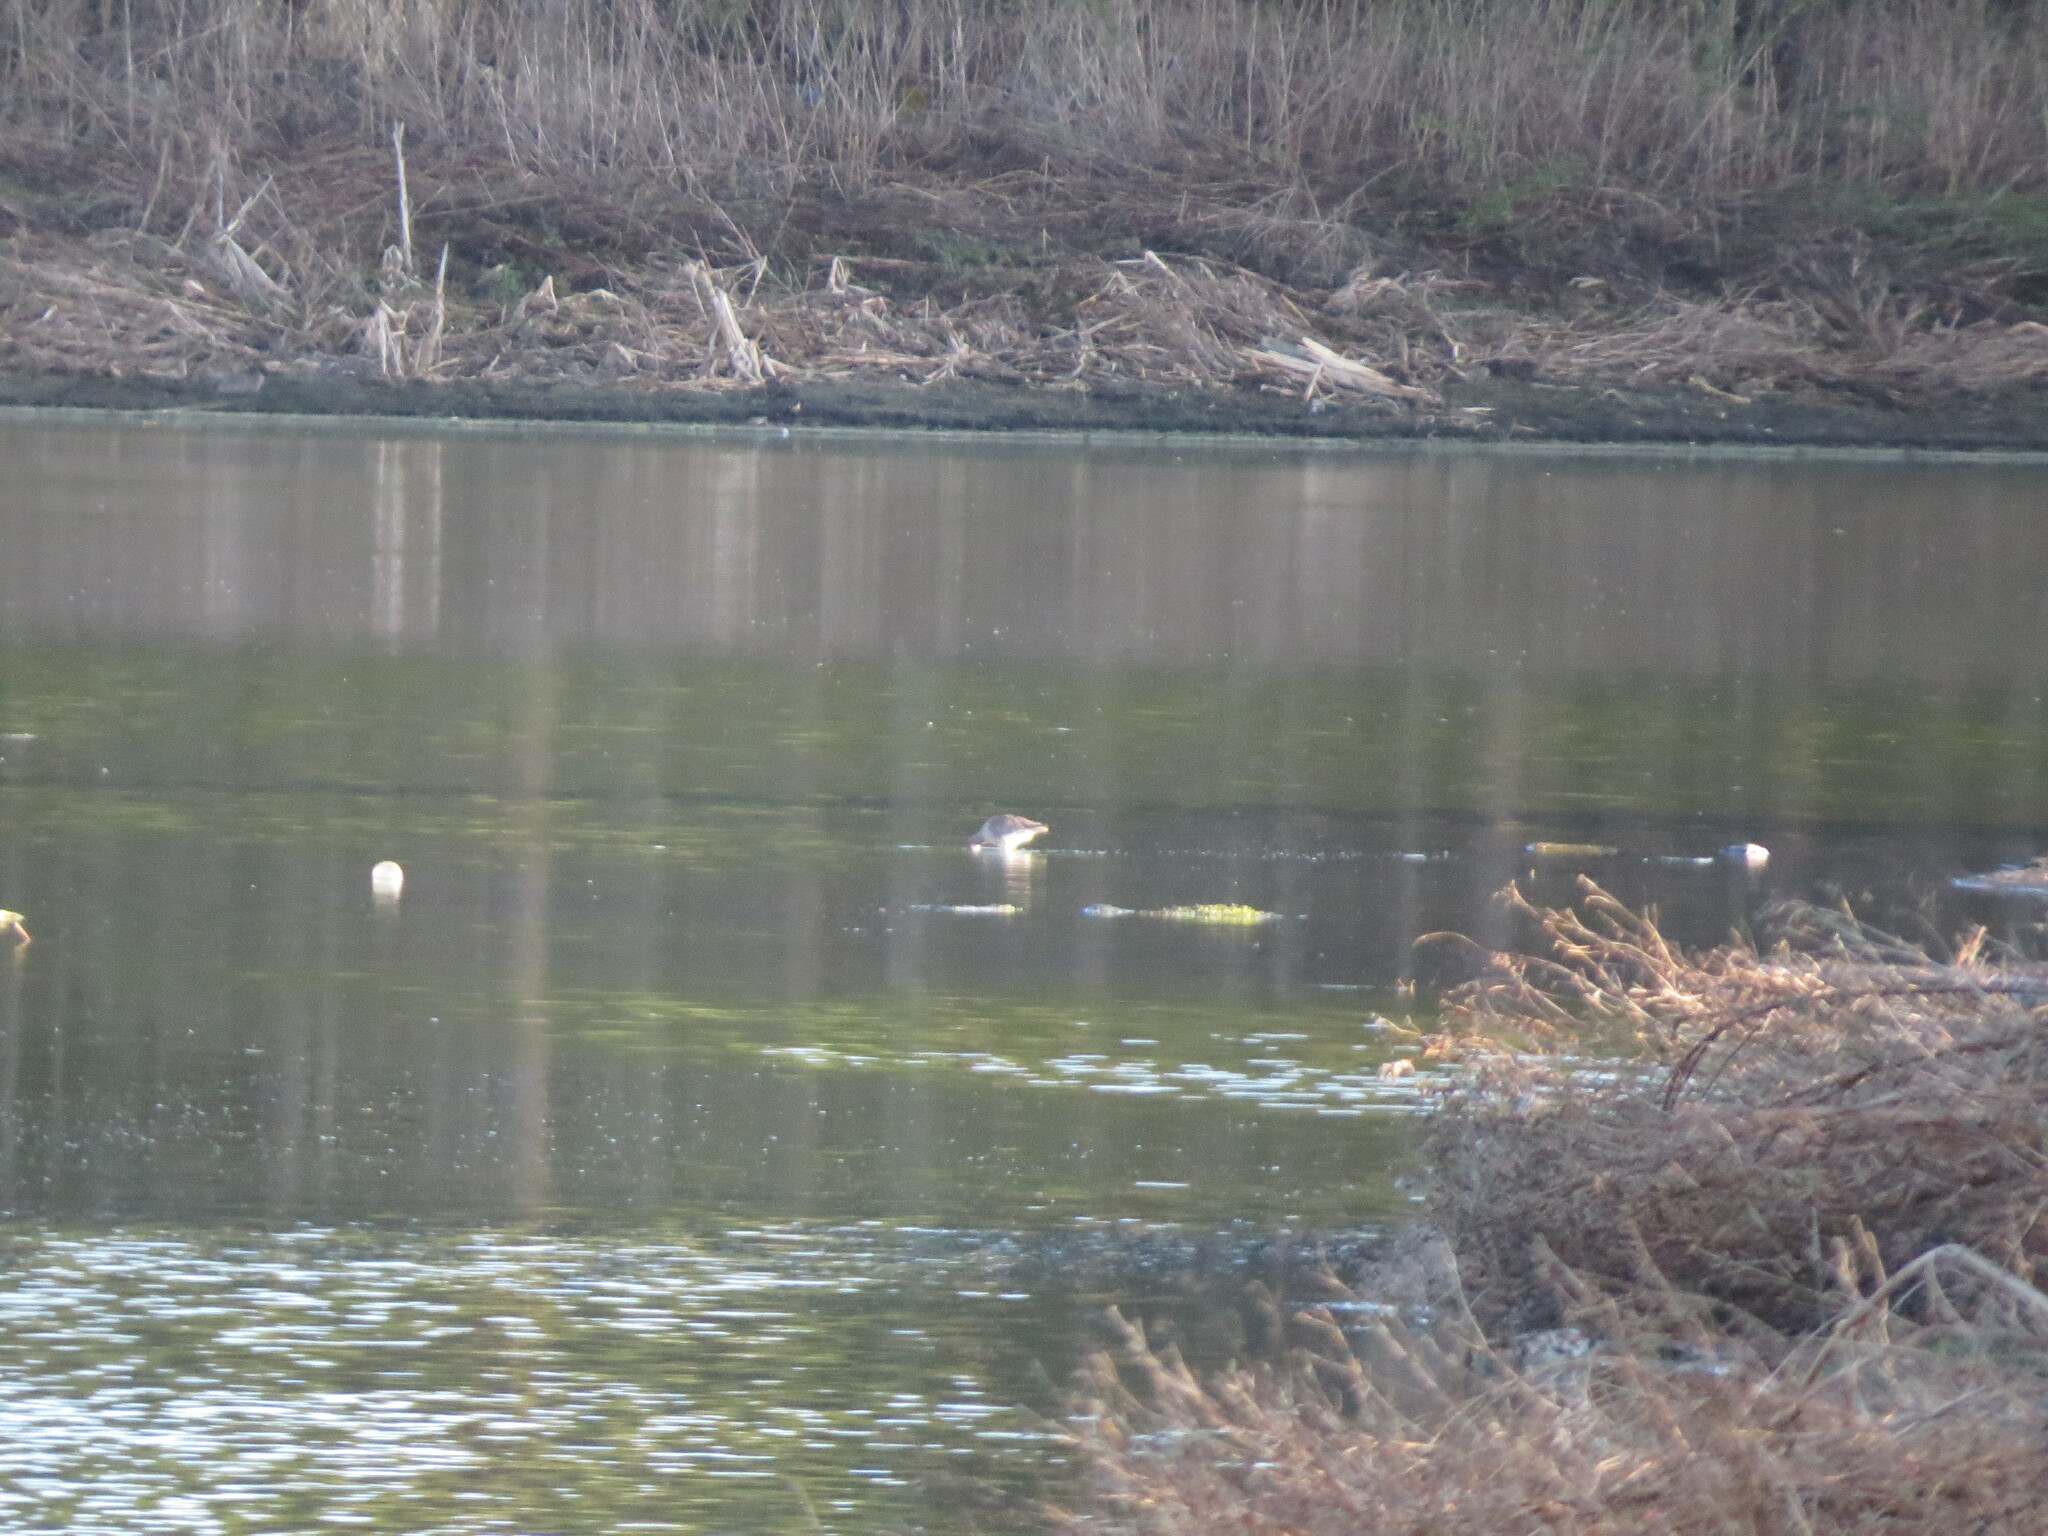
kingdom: Animalia
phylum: Chordata
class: Aves
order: Charadriiformes
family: Scolopacidae
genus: Tringa
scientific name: Tringa totanus
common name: Common redshank
